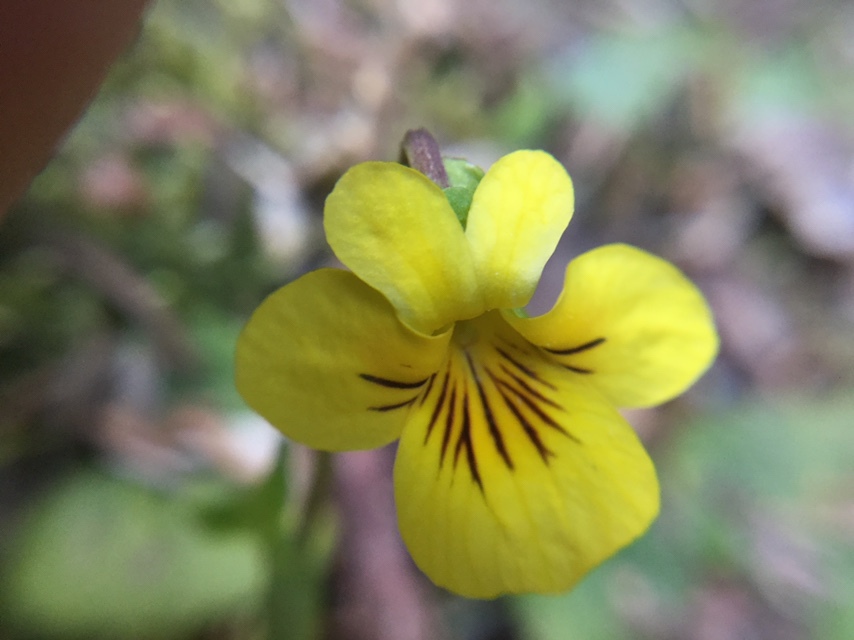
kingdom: Plantae
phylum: Tracheophyta
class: Magnoliopsida
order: Malpighiales
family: Violaceae
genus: Viola
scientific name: Viola orbiculata
